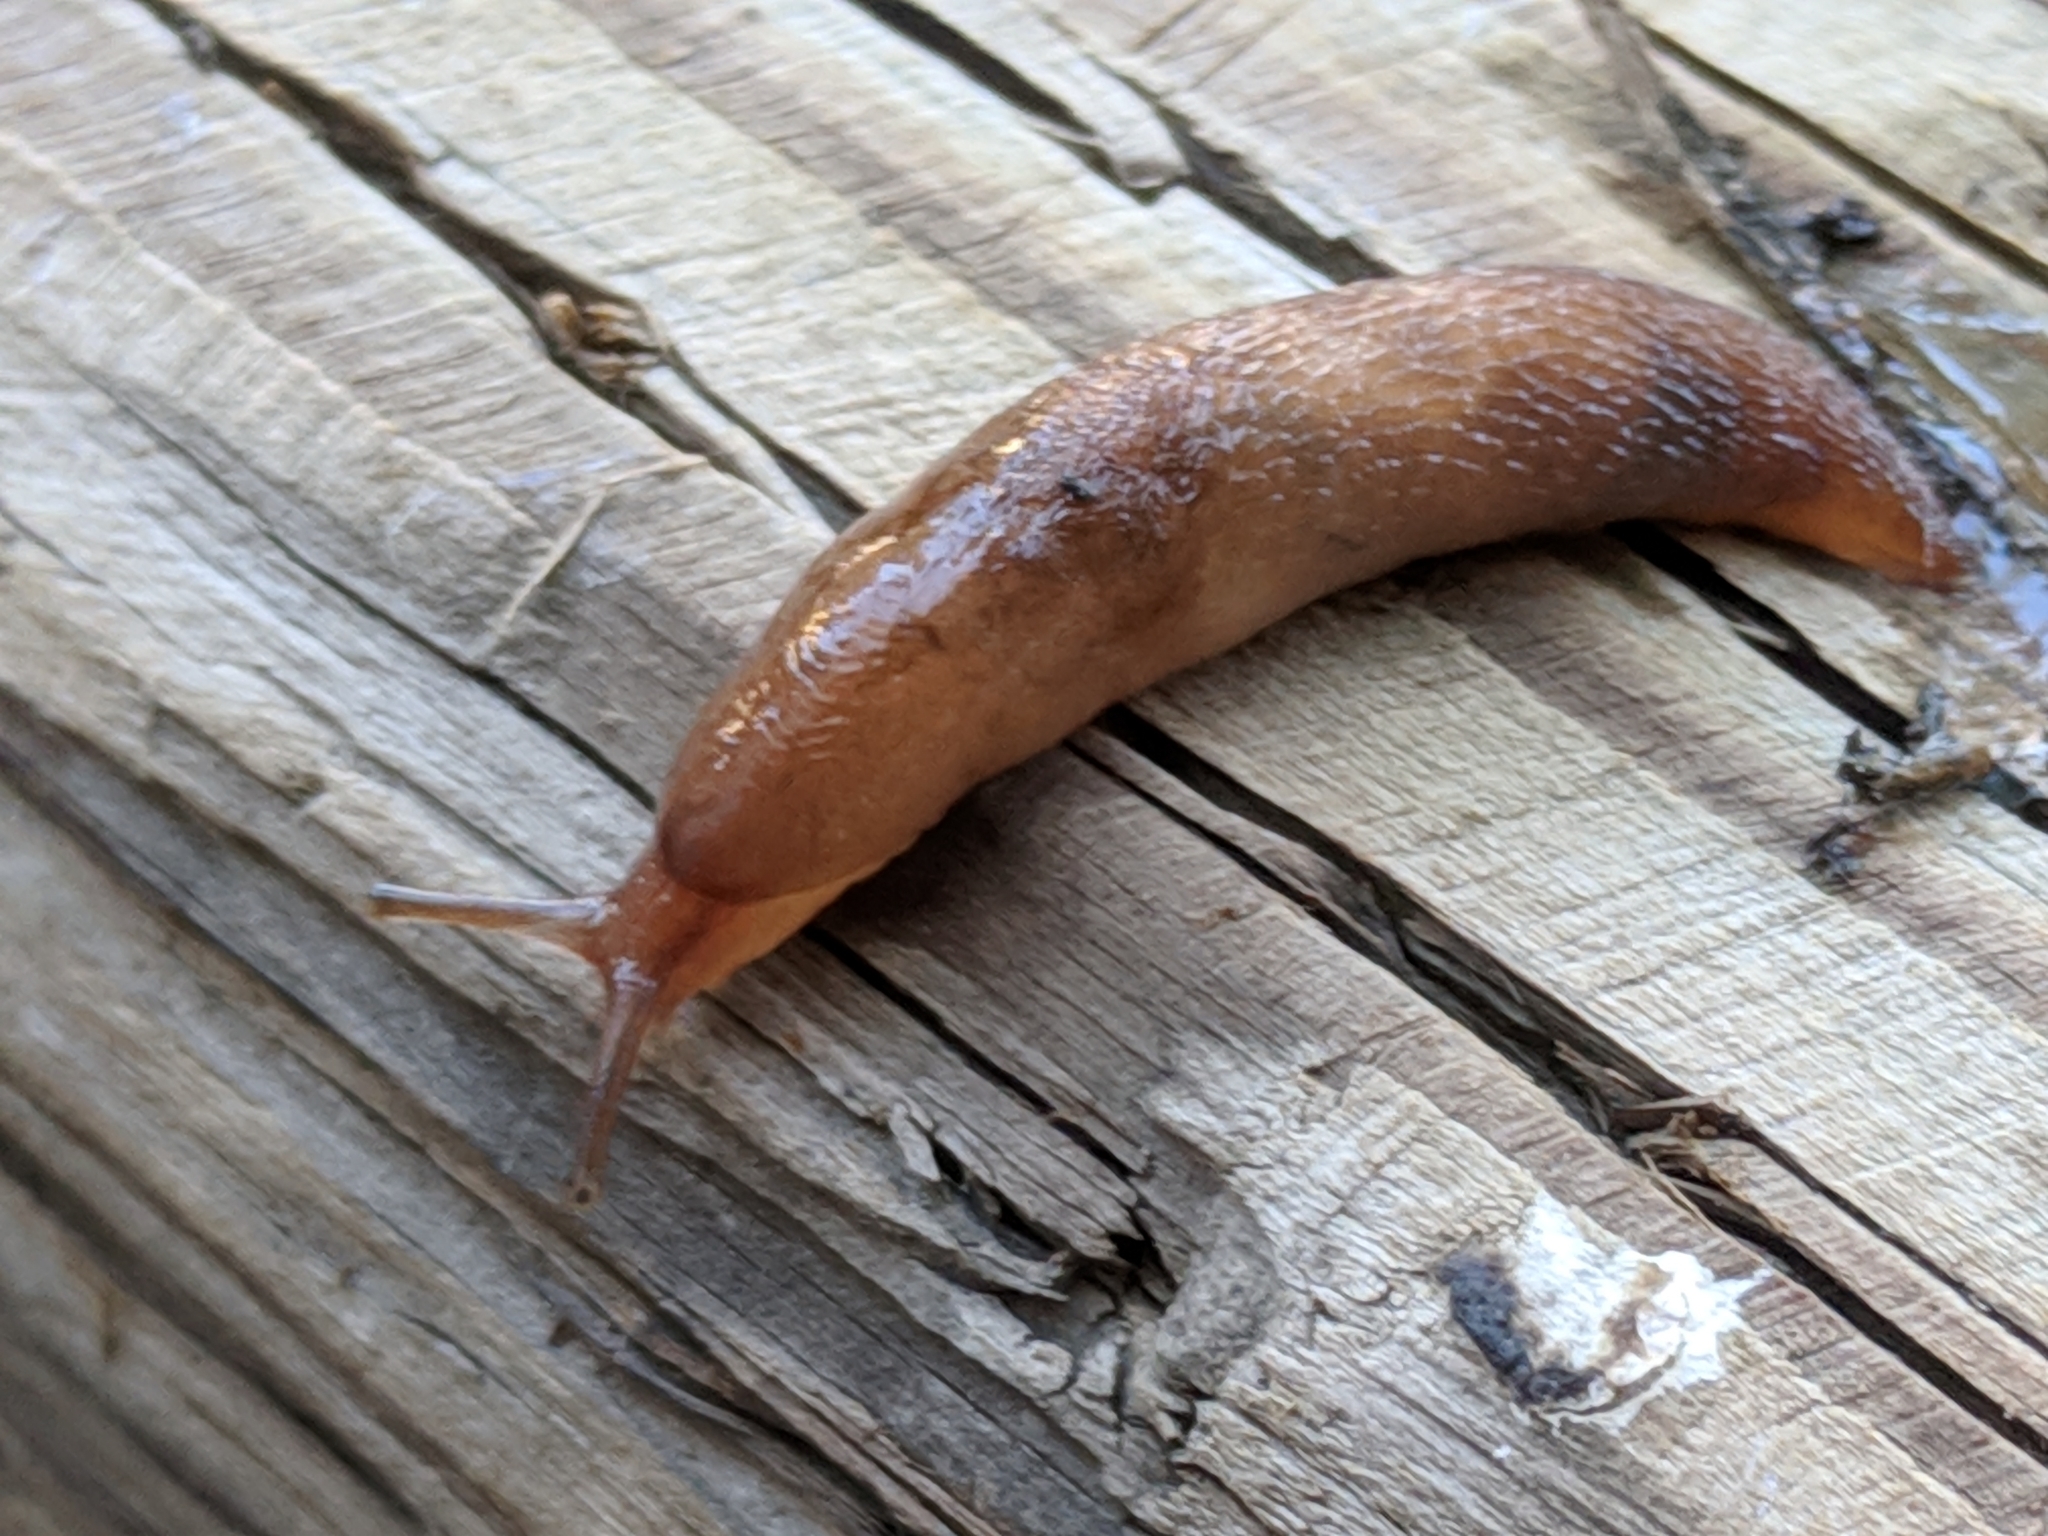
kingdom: Animalia
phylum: Mollusca
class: Gastropoda
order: Stylommatophora
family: Limacidae
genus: Ambigolimax
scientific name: Ambigolimax
